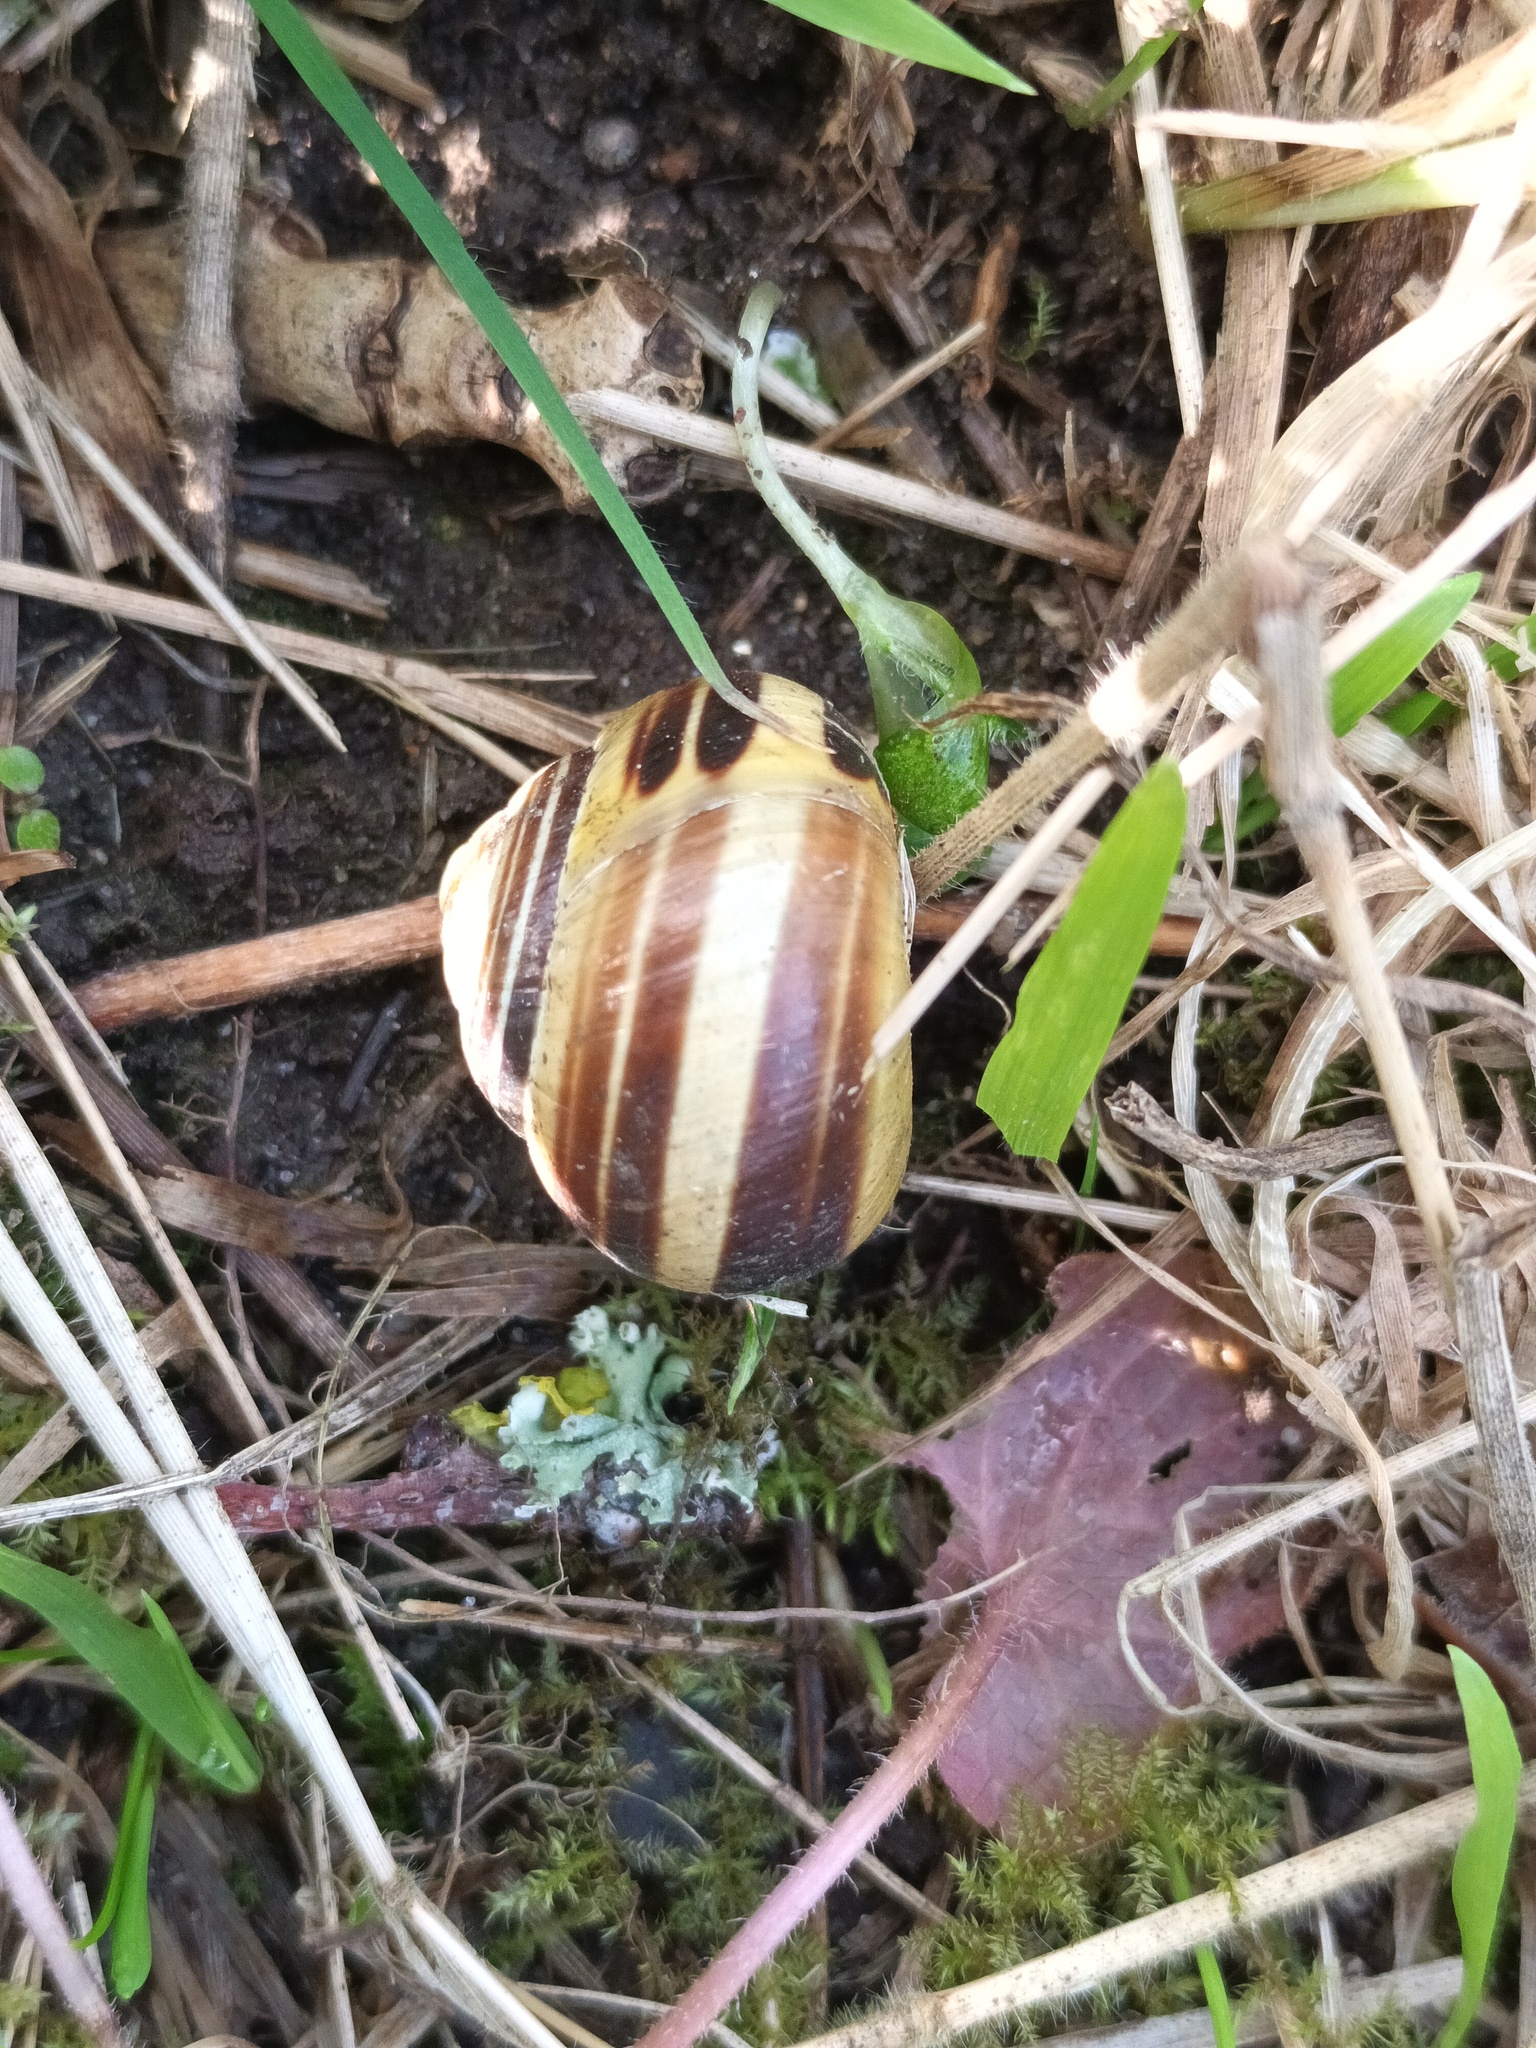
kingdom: Animalia
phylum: Mollusca
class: Gastropoda
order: Stylommatophora
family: Helicidae
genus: Cepaea
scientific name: Cepaea nemoralis
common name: Grovesnail
